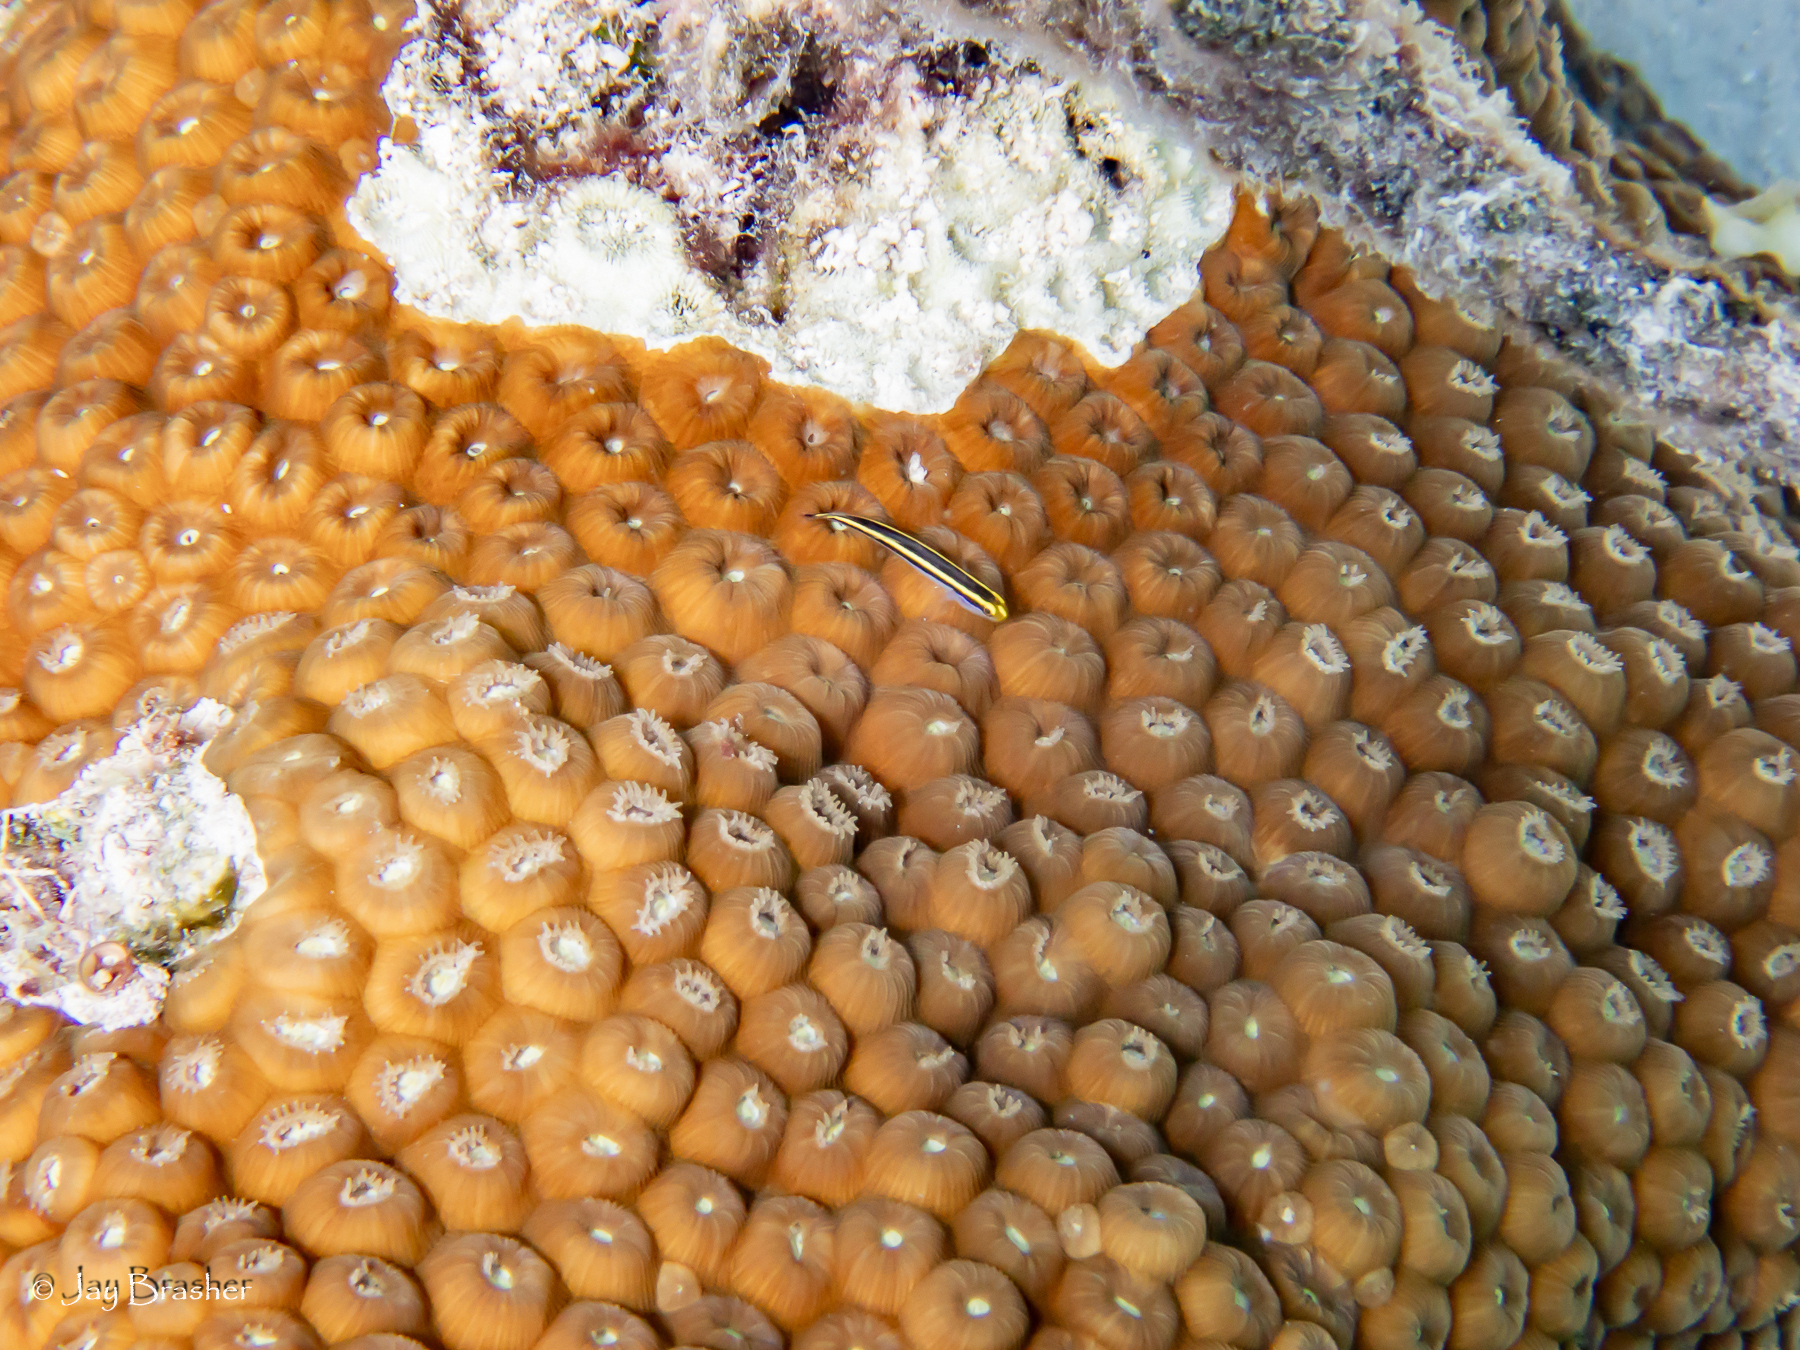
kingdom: Animalia
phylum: Cnidaria
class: Anthozoa
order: Scleractinia
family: Montastraeidae
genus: Montastraea
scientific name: Montastraea cavernosa
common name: Great star coral
